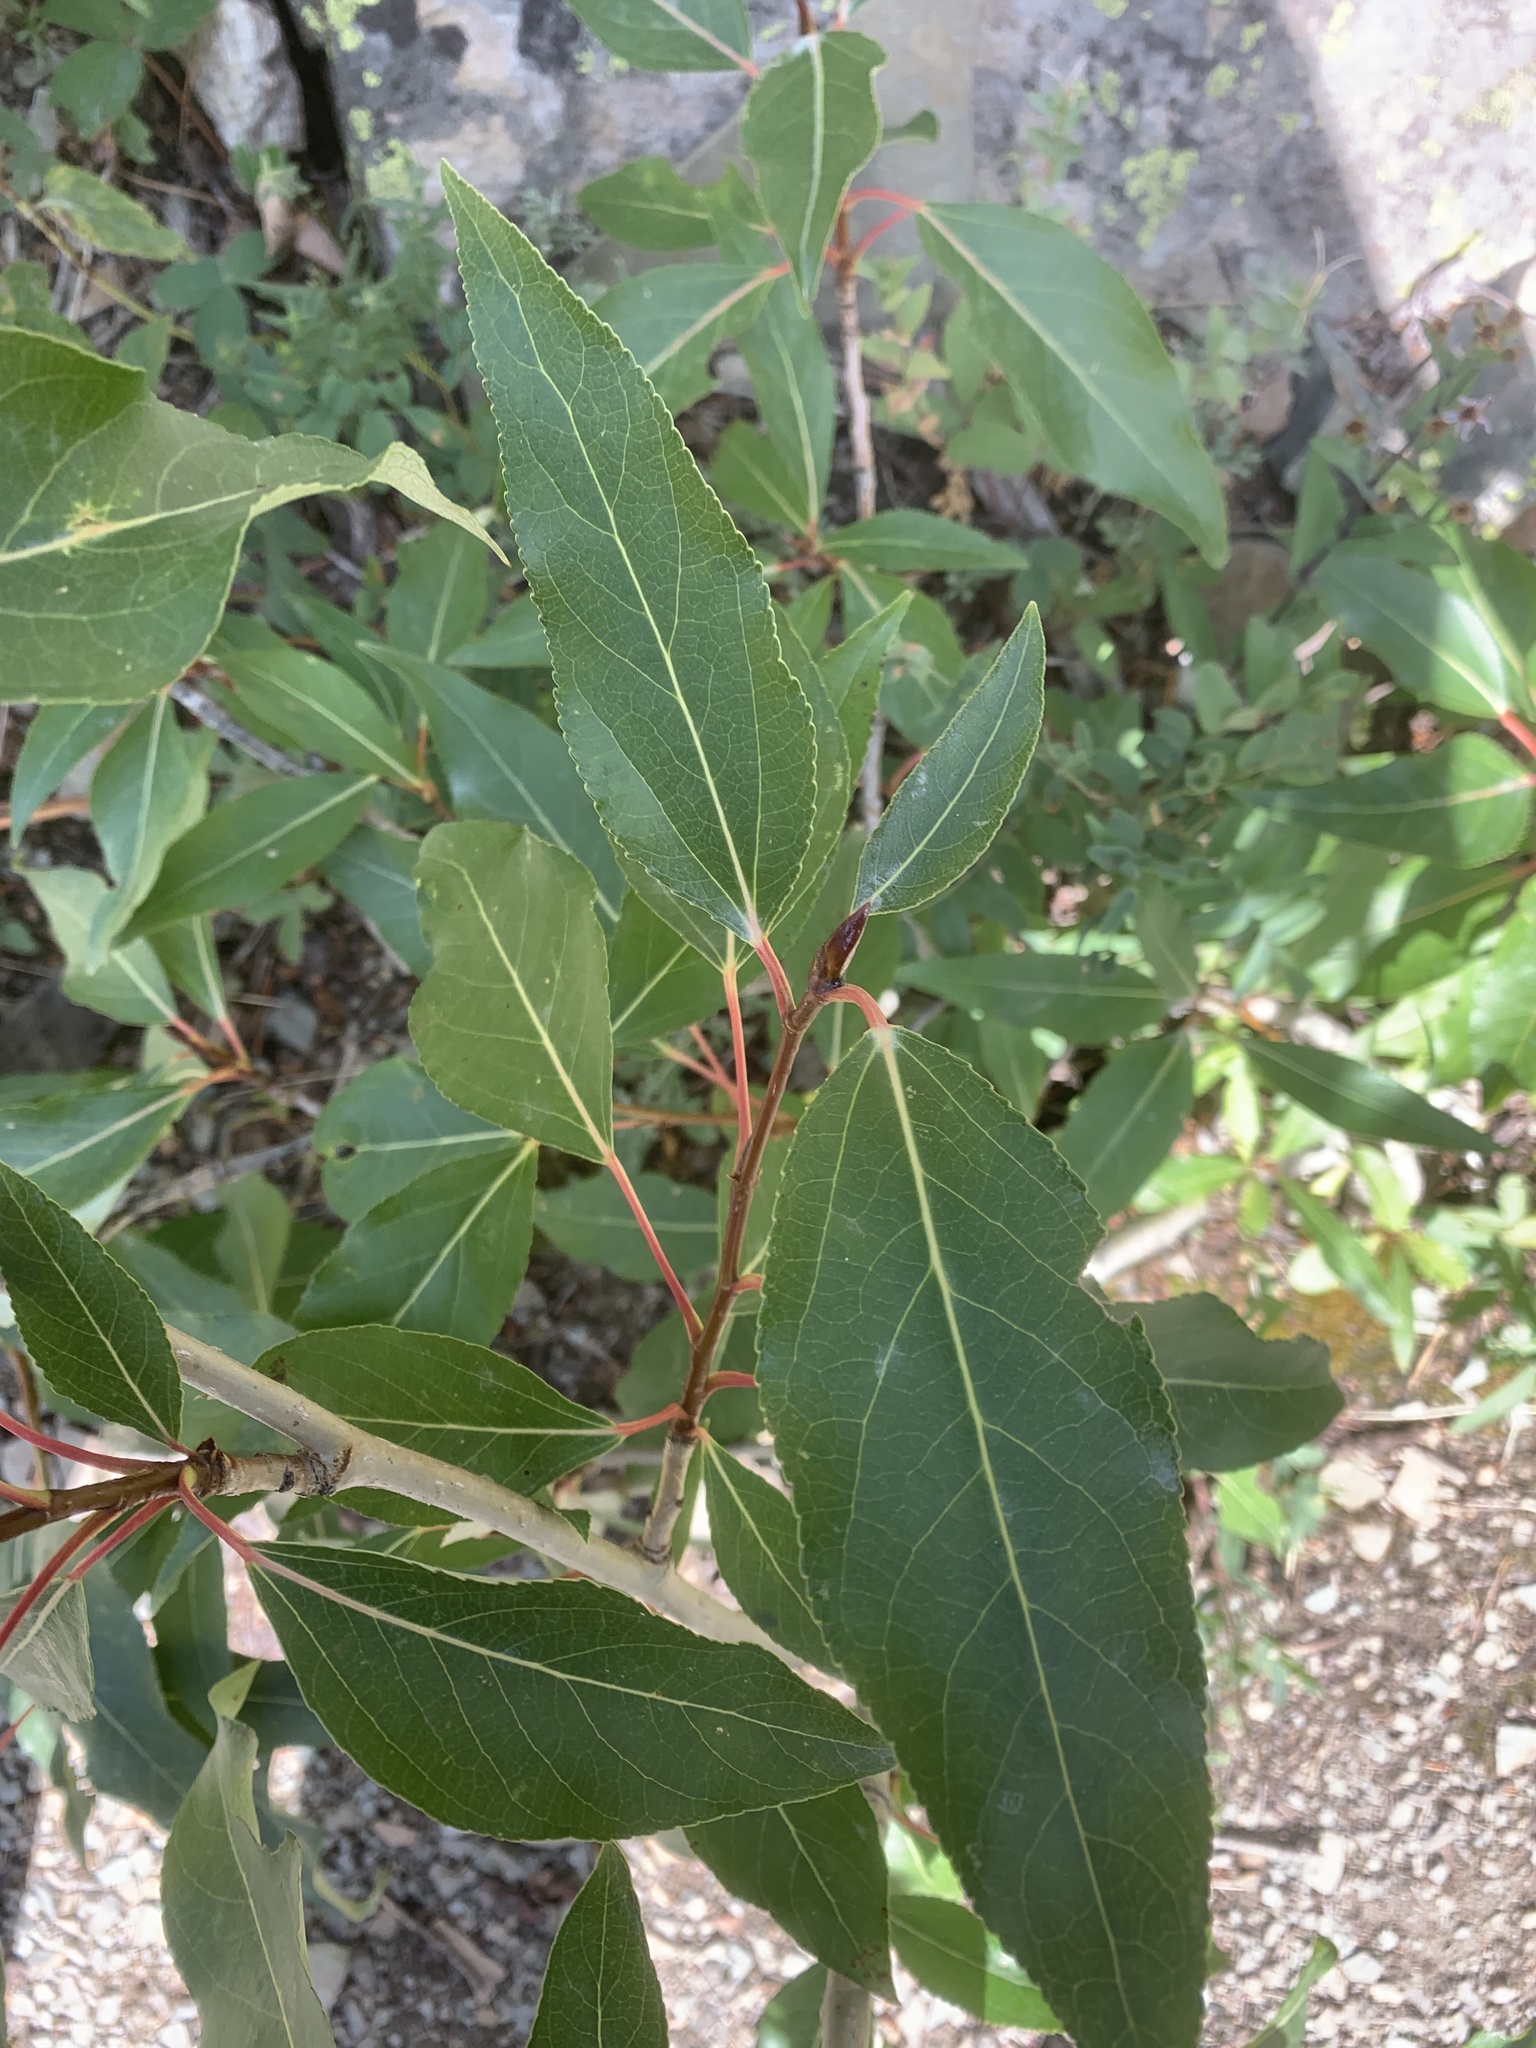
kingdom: Plantae
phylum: Tracheophyta
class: Magnoliopsida
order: Malpighiales
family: Salicaceae
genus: Populus
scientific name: Populus angustifolia
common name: Willow cottonwood
